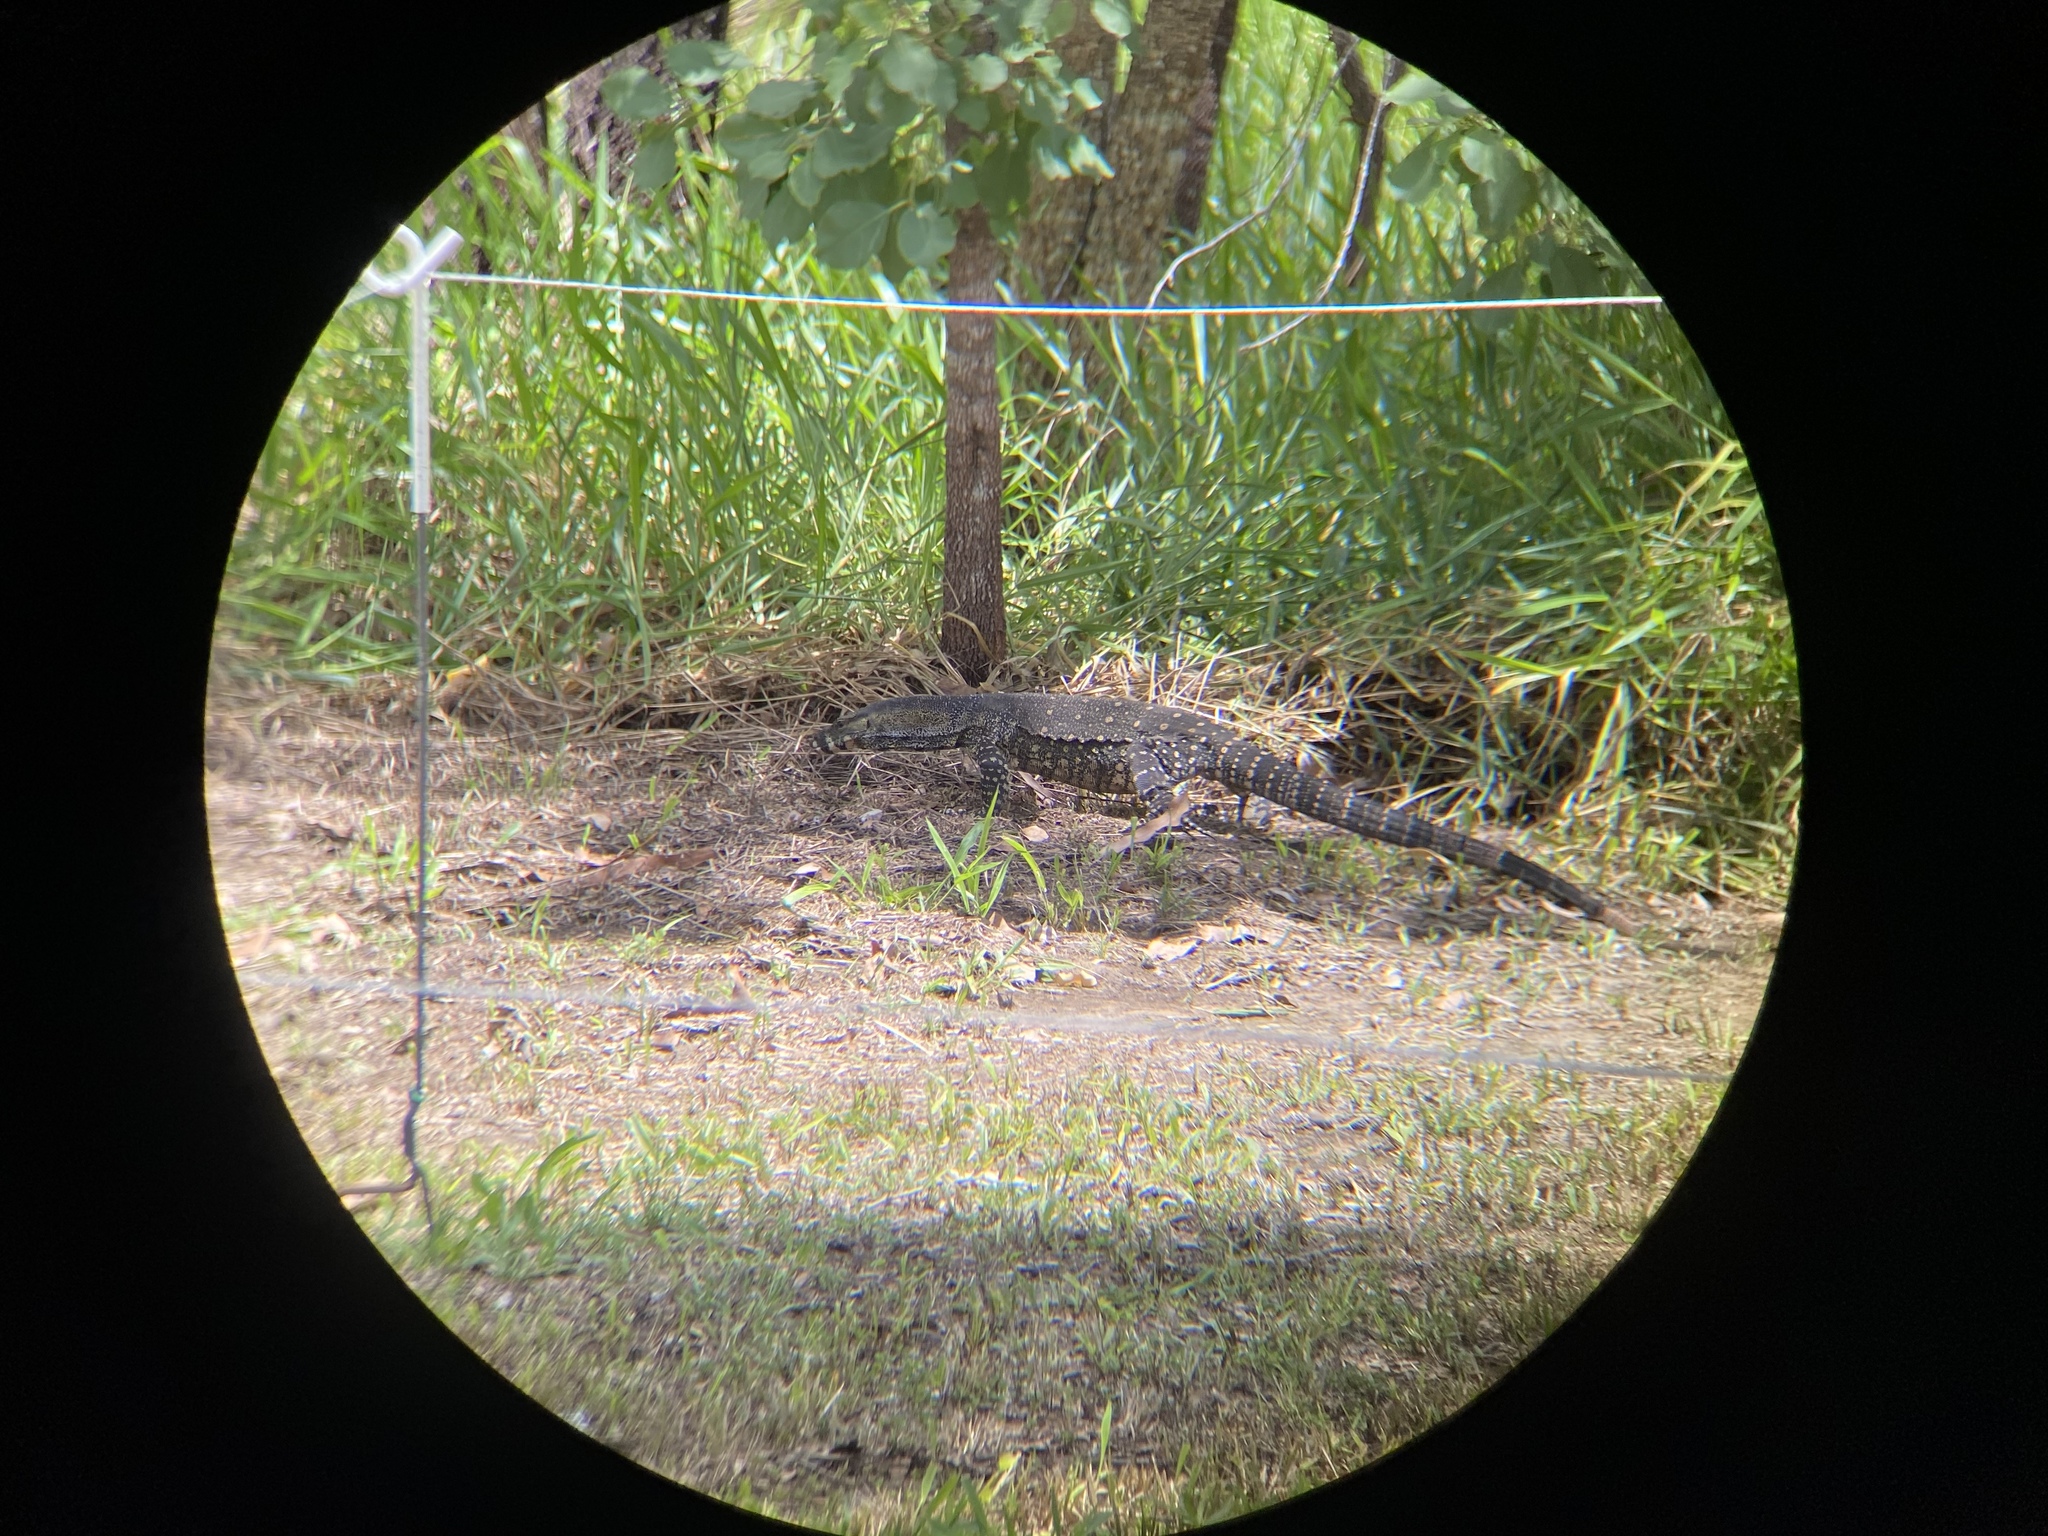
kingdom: Animalia
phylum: Chordata
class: Squamata
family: Varanidae
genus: Varanus
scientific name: Varanus varius
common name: Lace monitor
